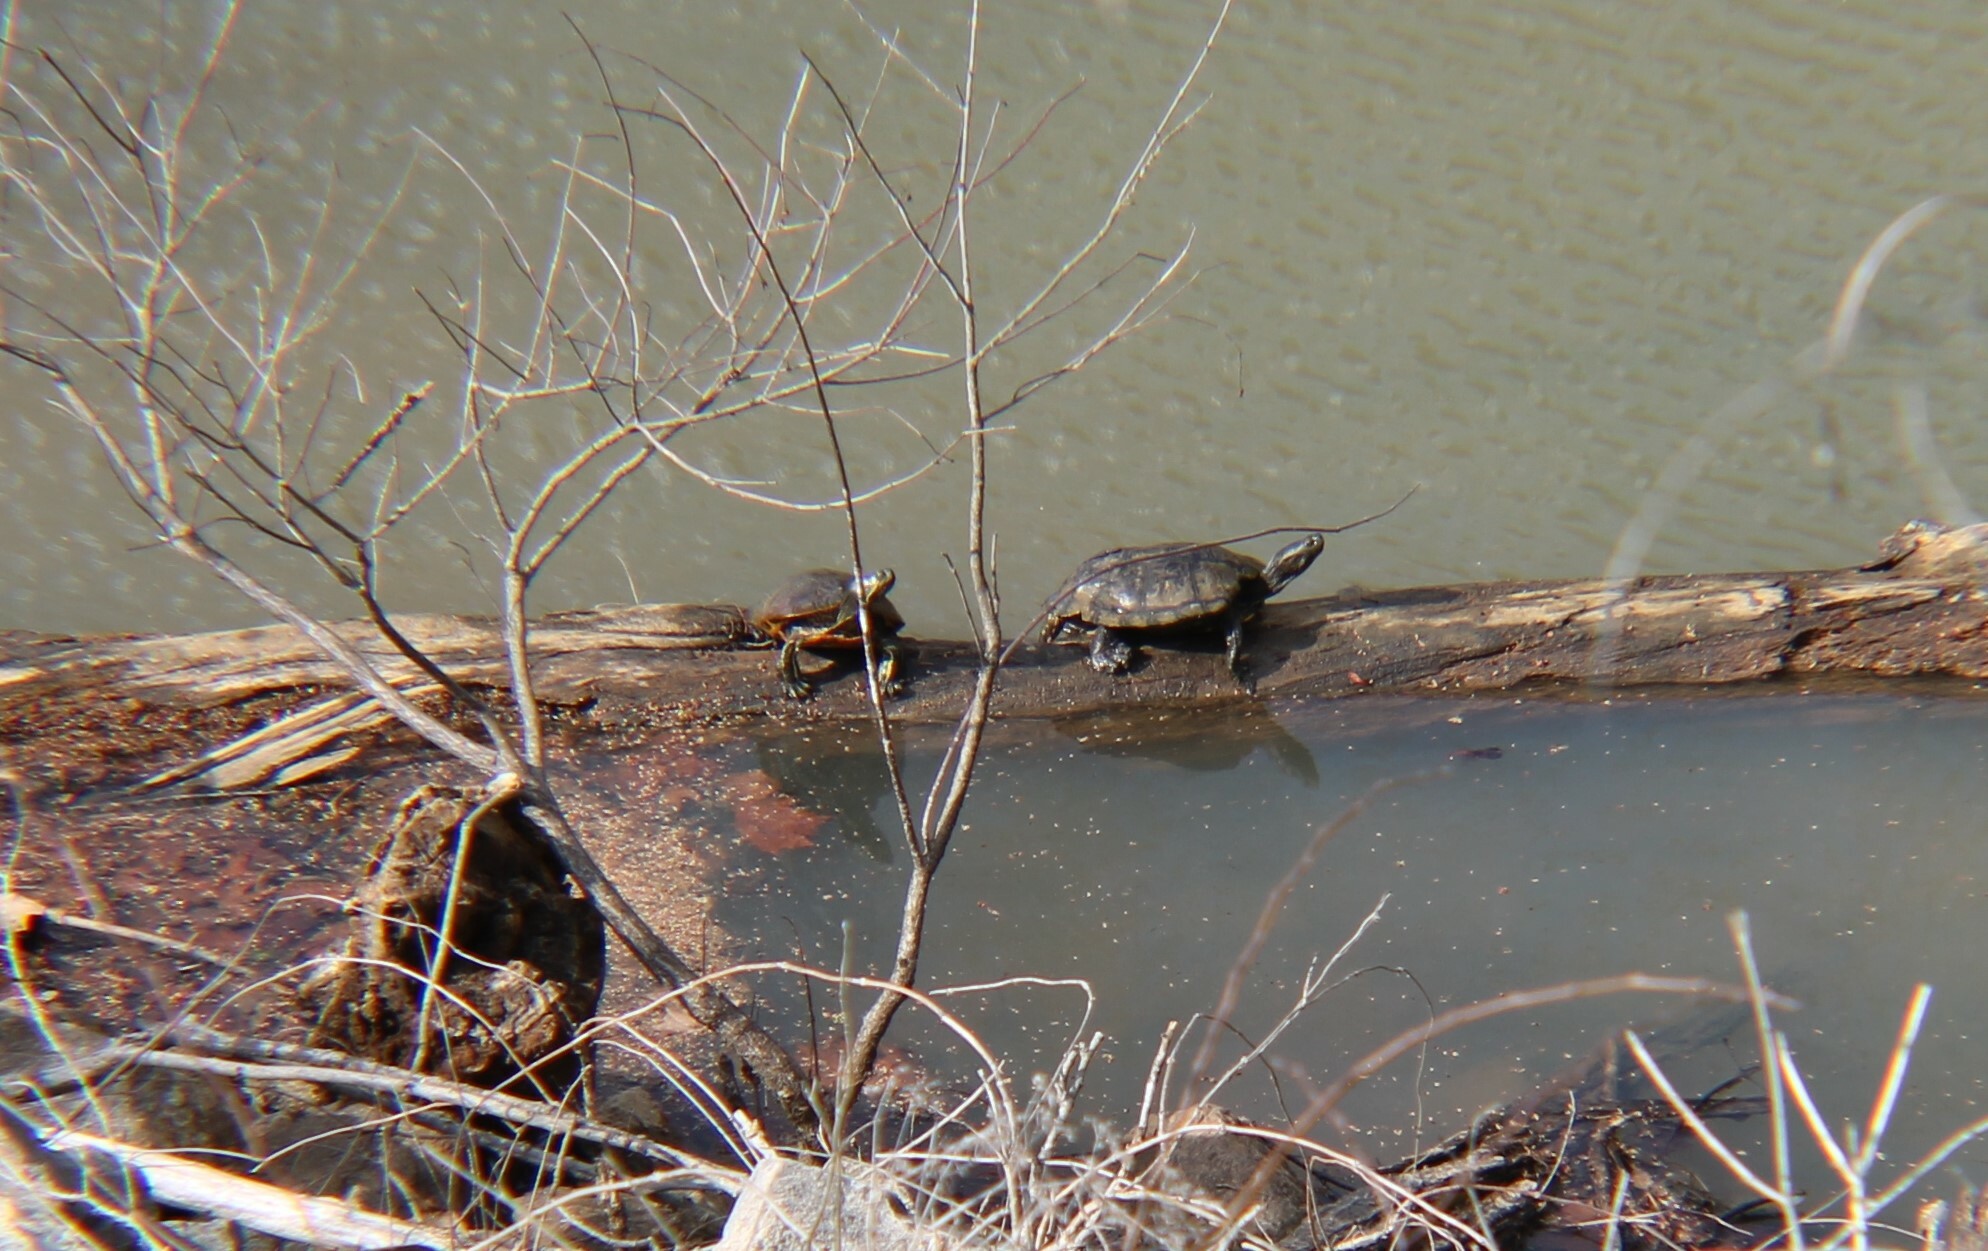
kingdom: Animalia
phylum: Chordata
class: Testudines
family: Emydidae
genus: Trachemys
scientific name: Trachemys scripta
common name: Slider
